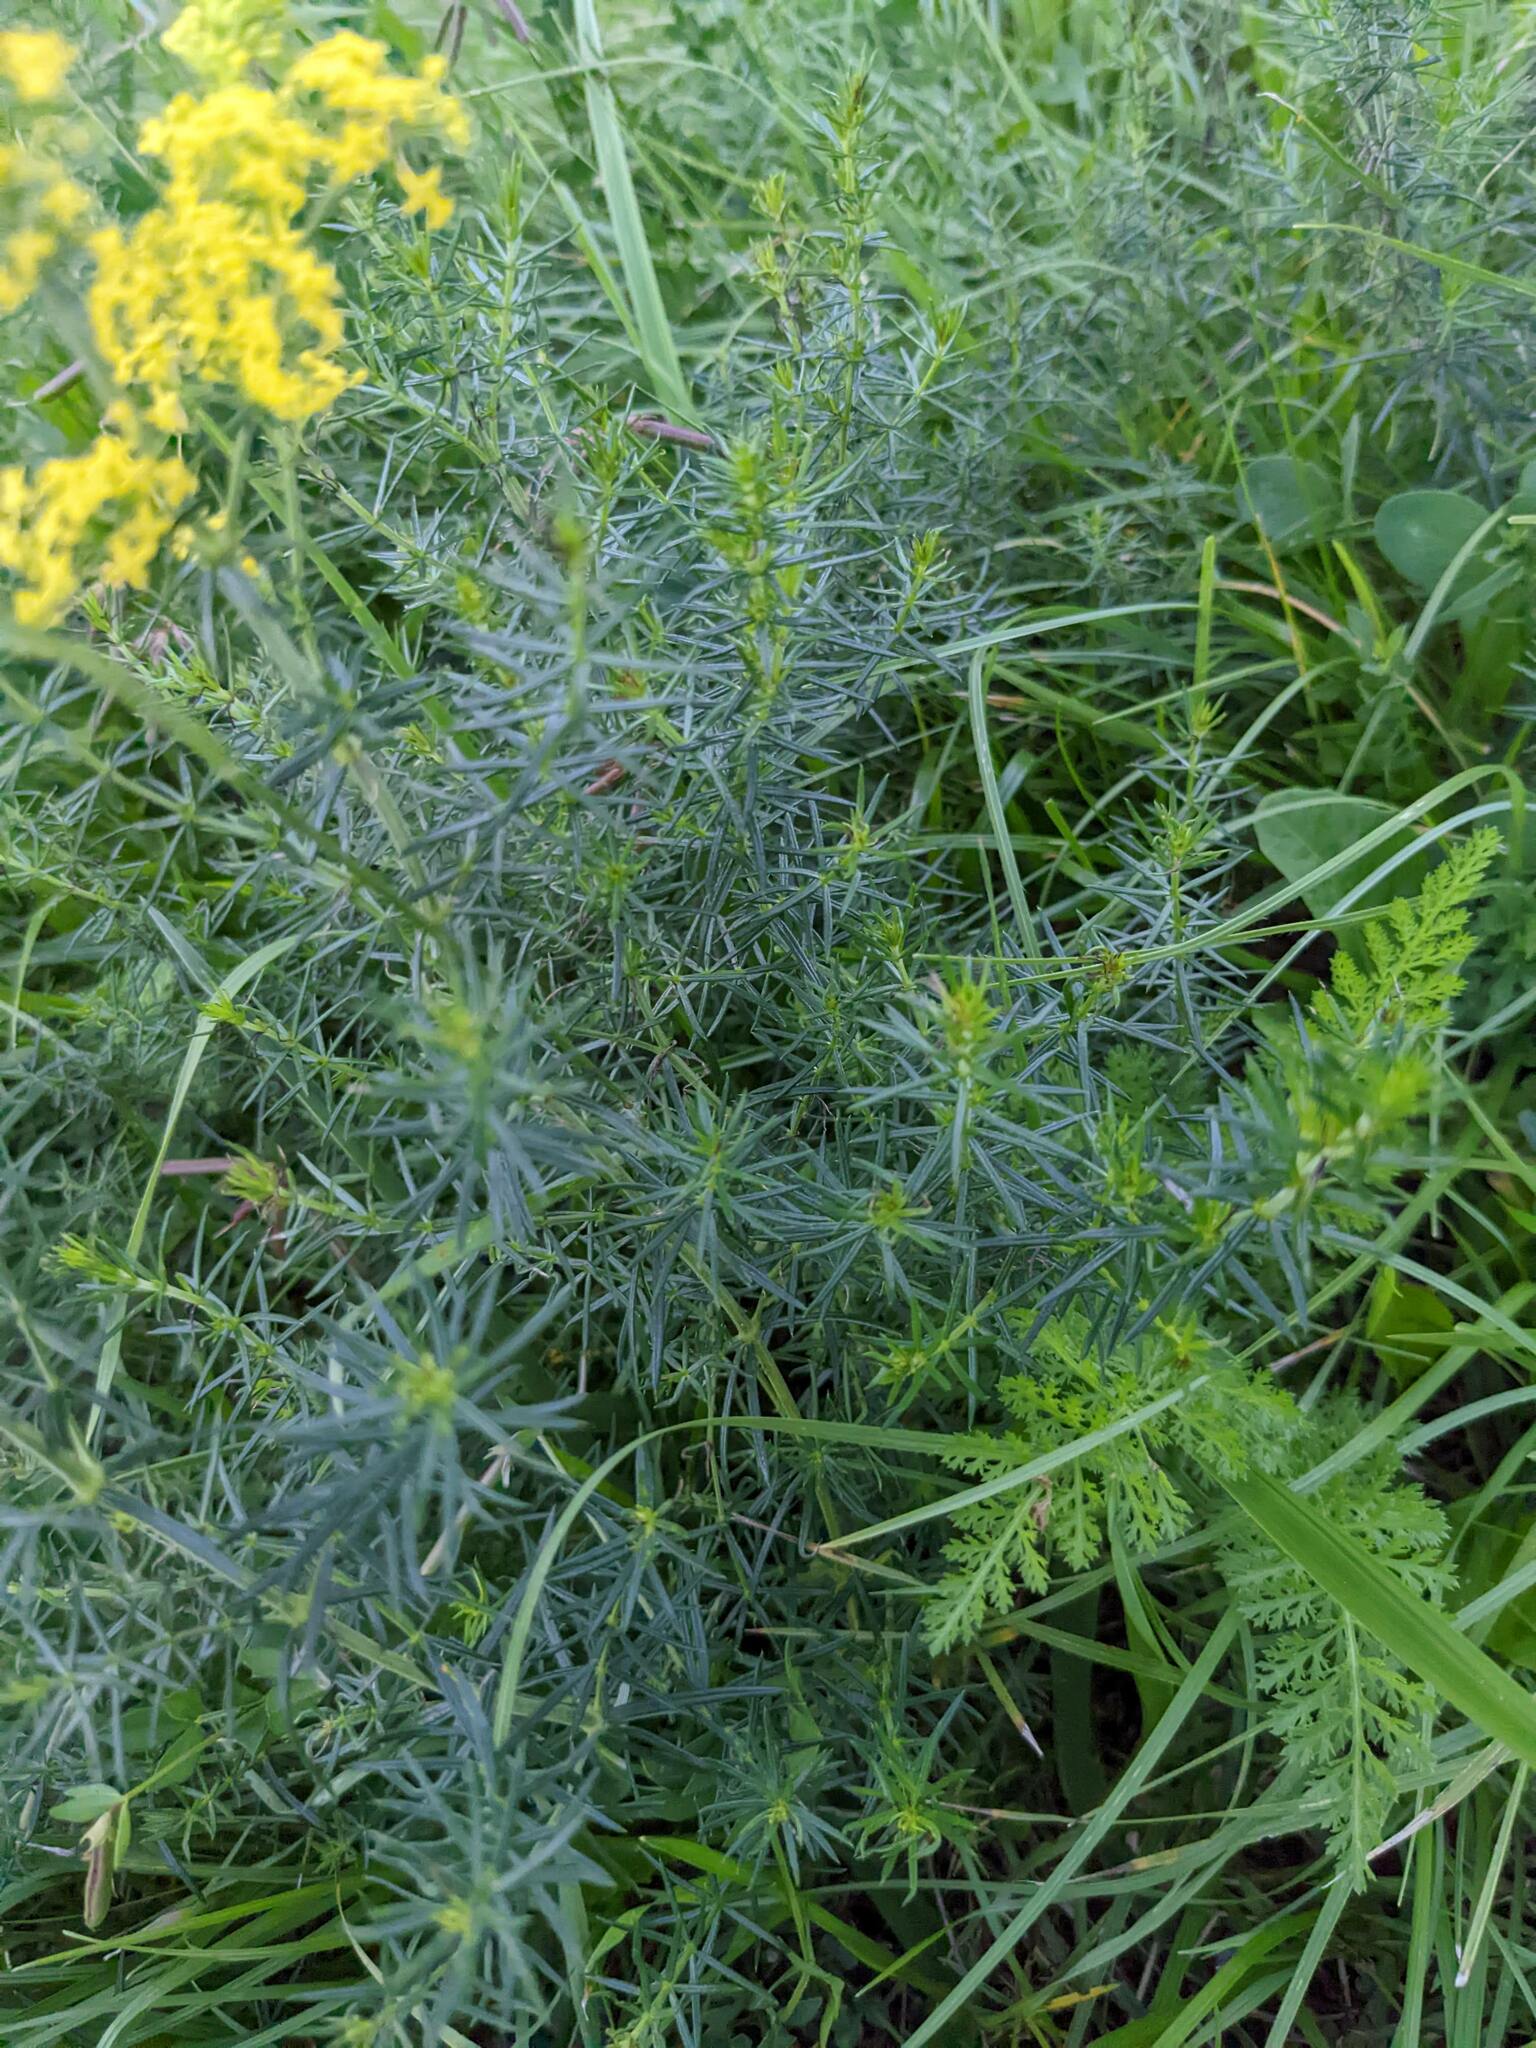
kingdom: Plantae
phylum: Tracheophyta
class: Magnoliopsida
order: Gentianales
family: Rubiaceae
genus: Galium
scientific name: Galium verum
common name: Lady's bedstraw
